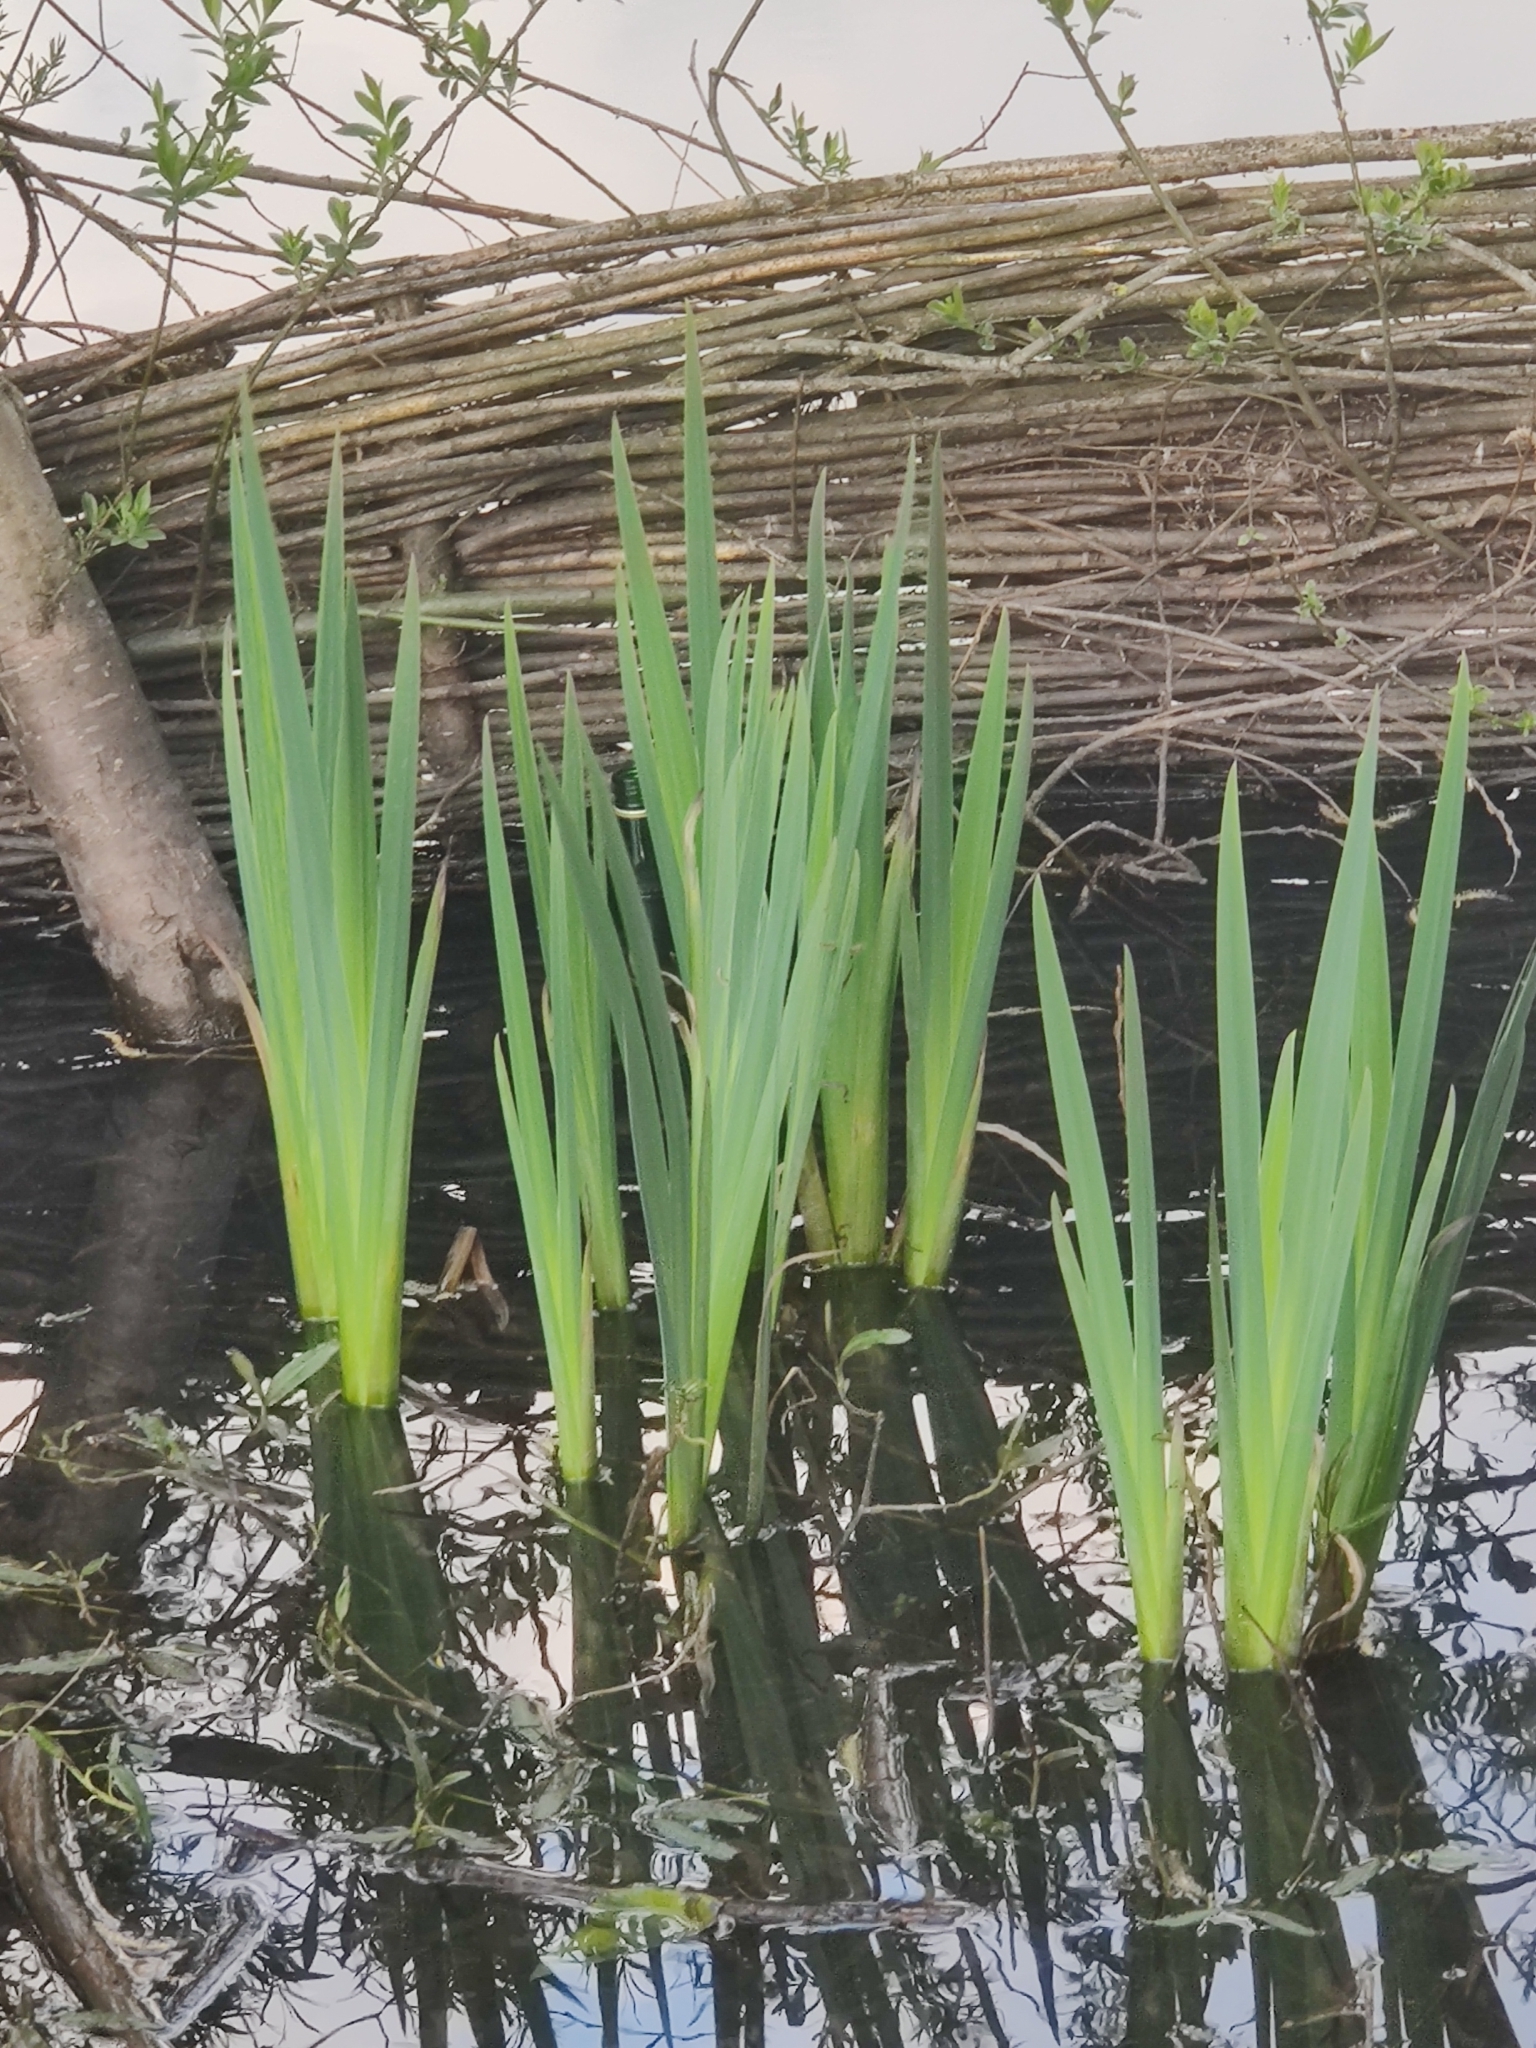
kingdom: Plantae
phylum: Tracheophyta
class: Liliopsida
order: Asparagales
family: Iridaceae
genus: Iris
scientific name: Iris pseudacorus
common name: Yellow flag
